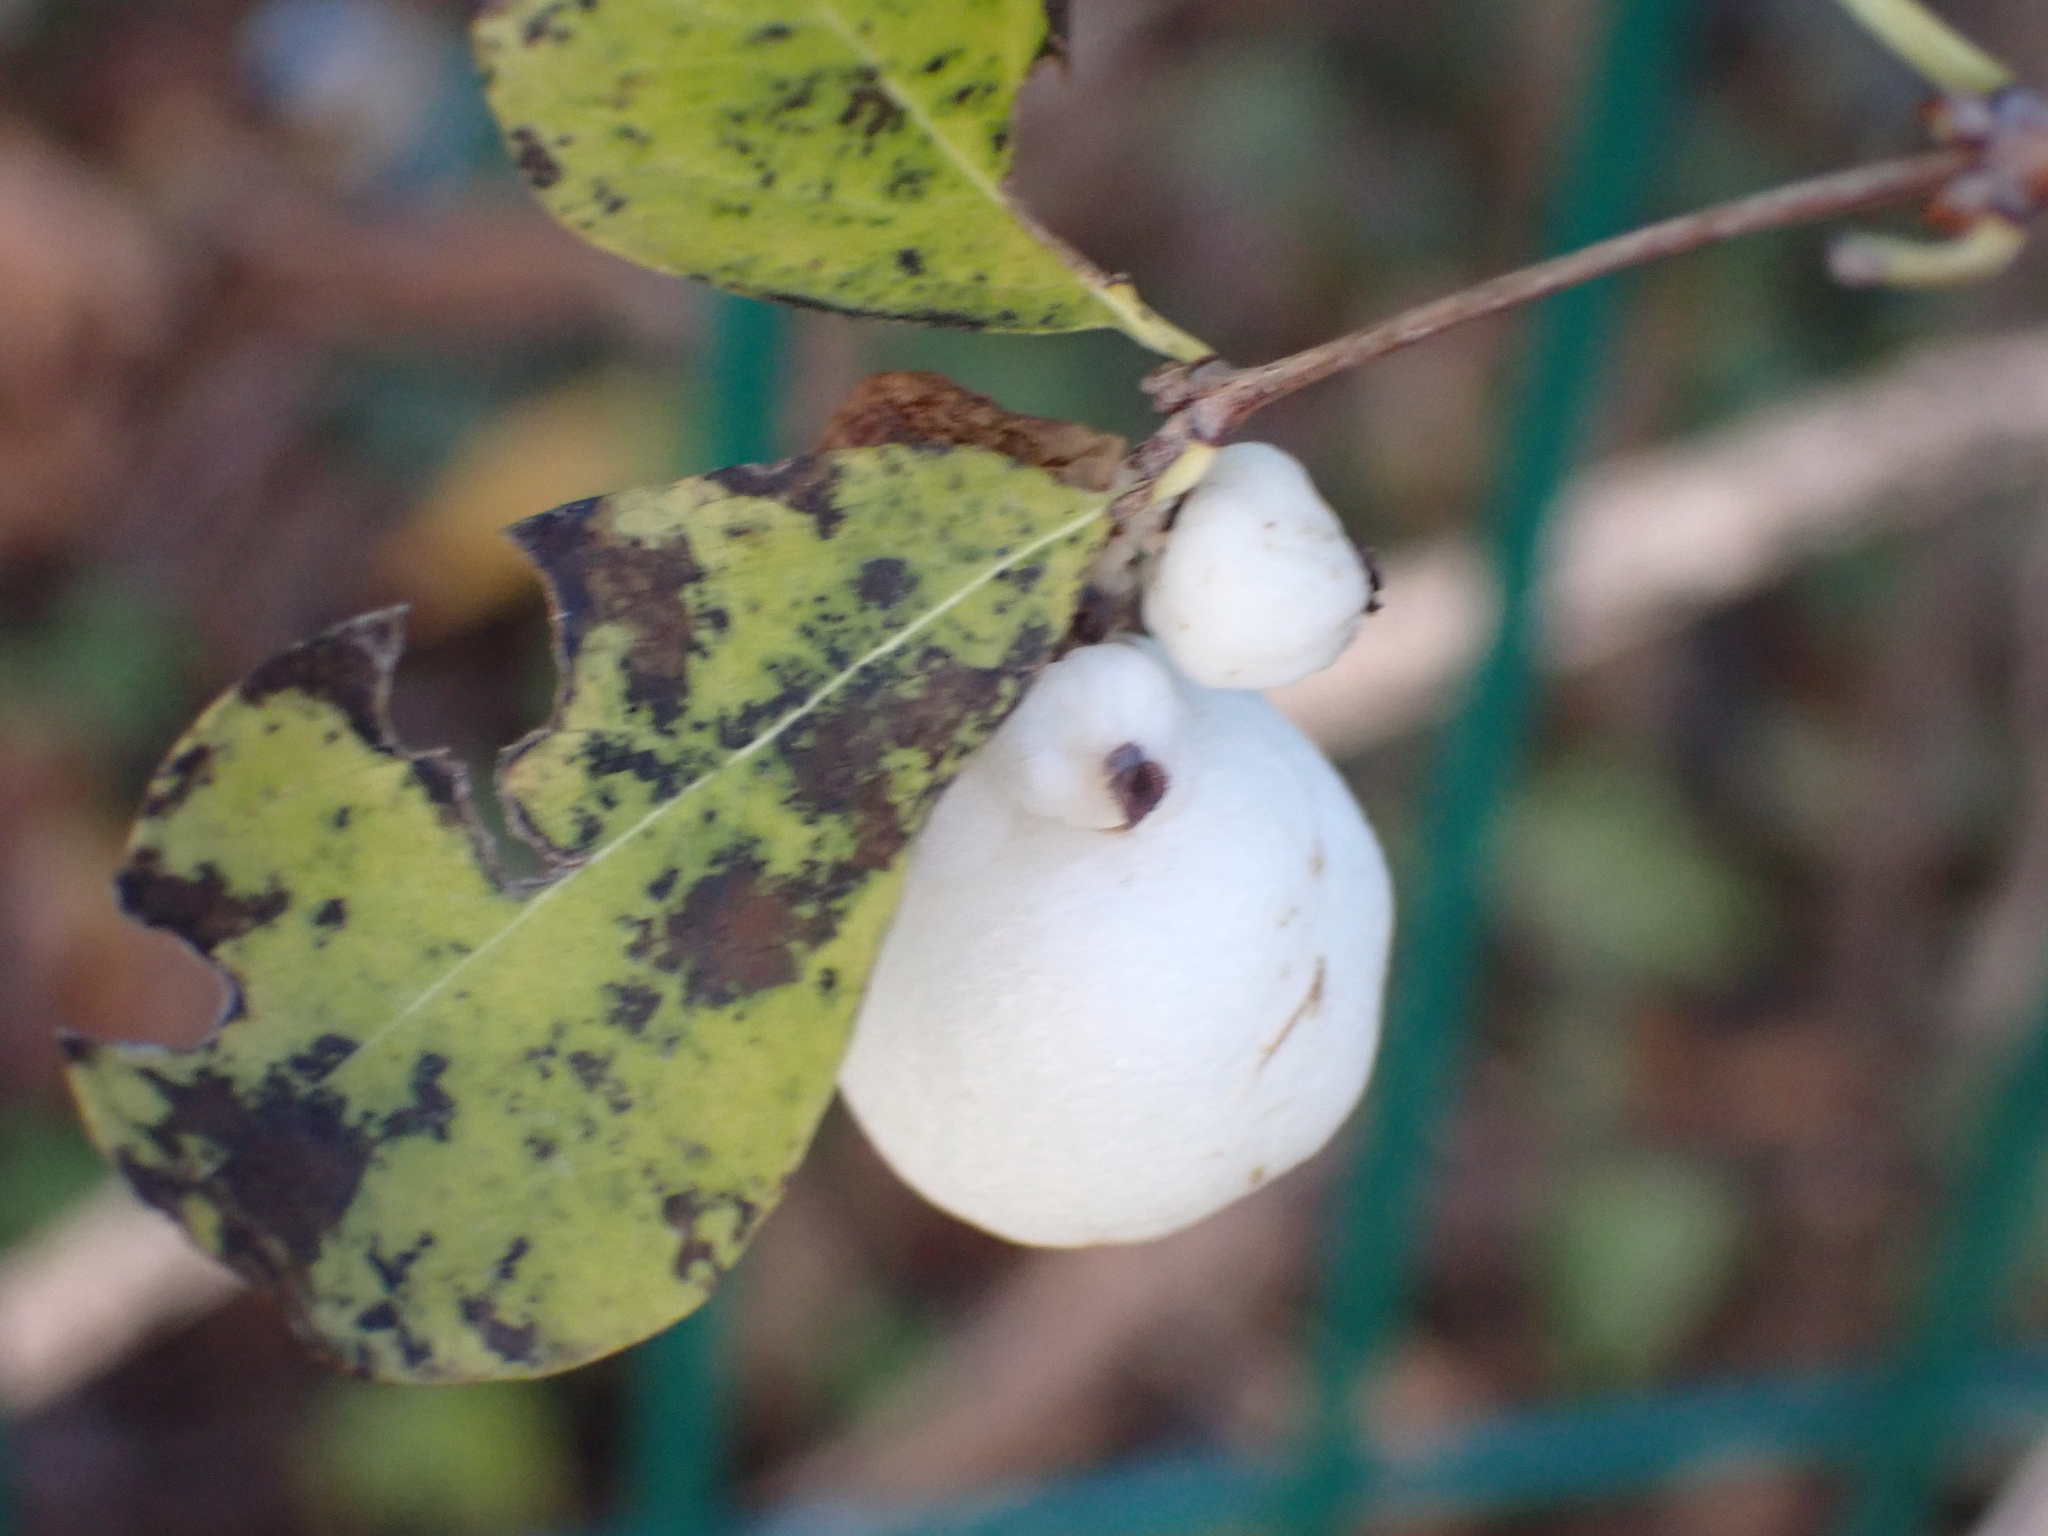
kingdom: Plantae
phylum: Tracheophyta
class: Magnoliopsida
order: Dipsacales
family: Caprifoliaceae
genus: Symphoricarpos
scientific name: Symphoricarpos albus
